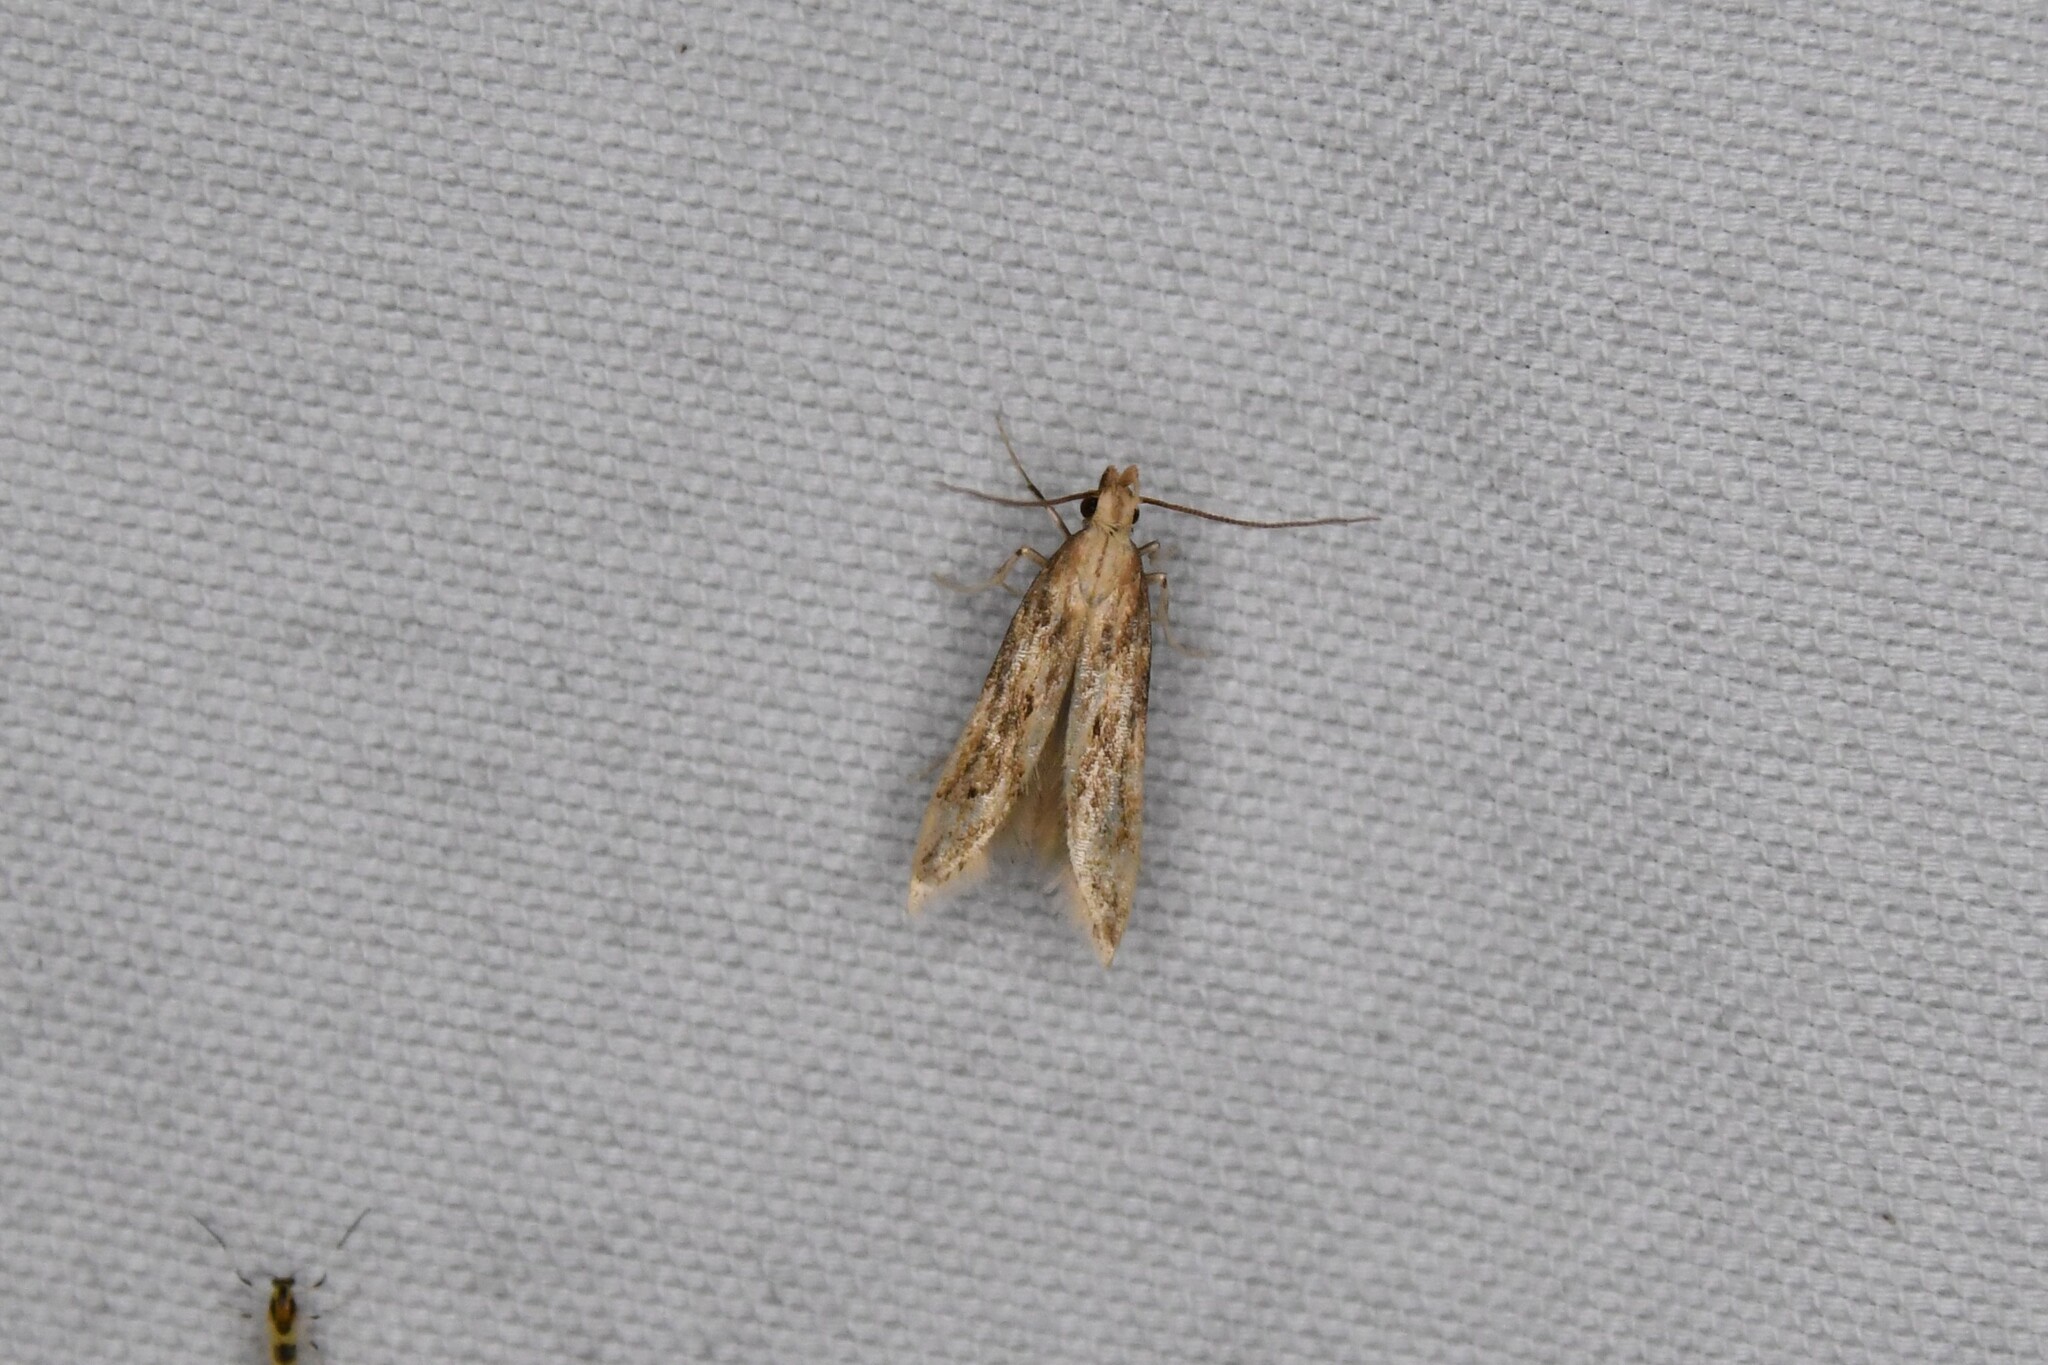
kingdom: Animalia
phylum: Arthropoda
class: Insecta
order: Lepidoptera
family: Gelechiidae
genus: Metzneria
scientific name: Metzneria lappella
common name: Burdock neb
